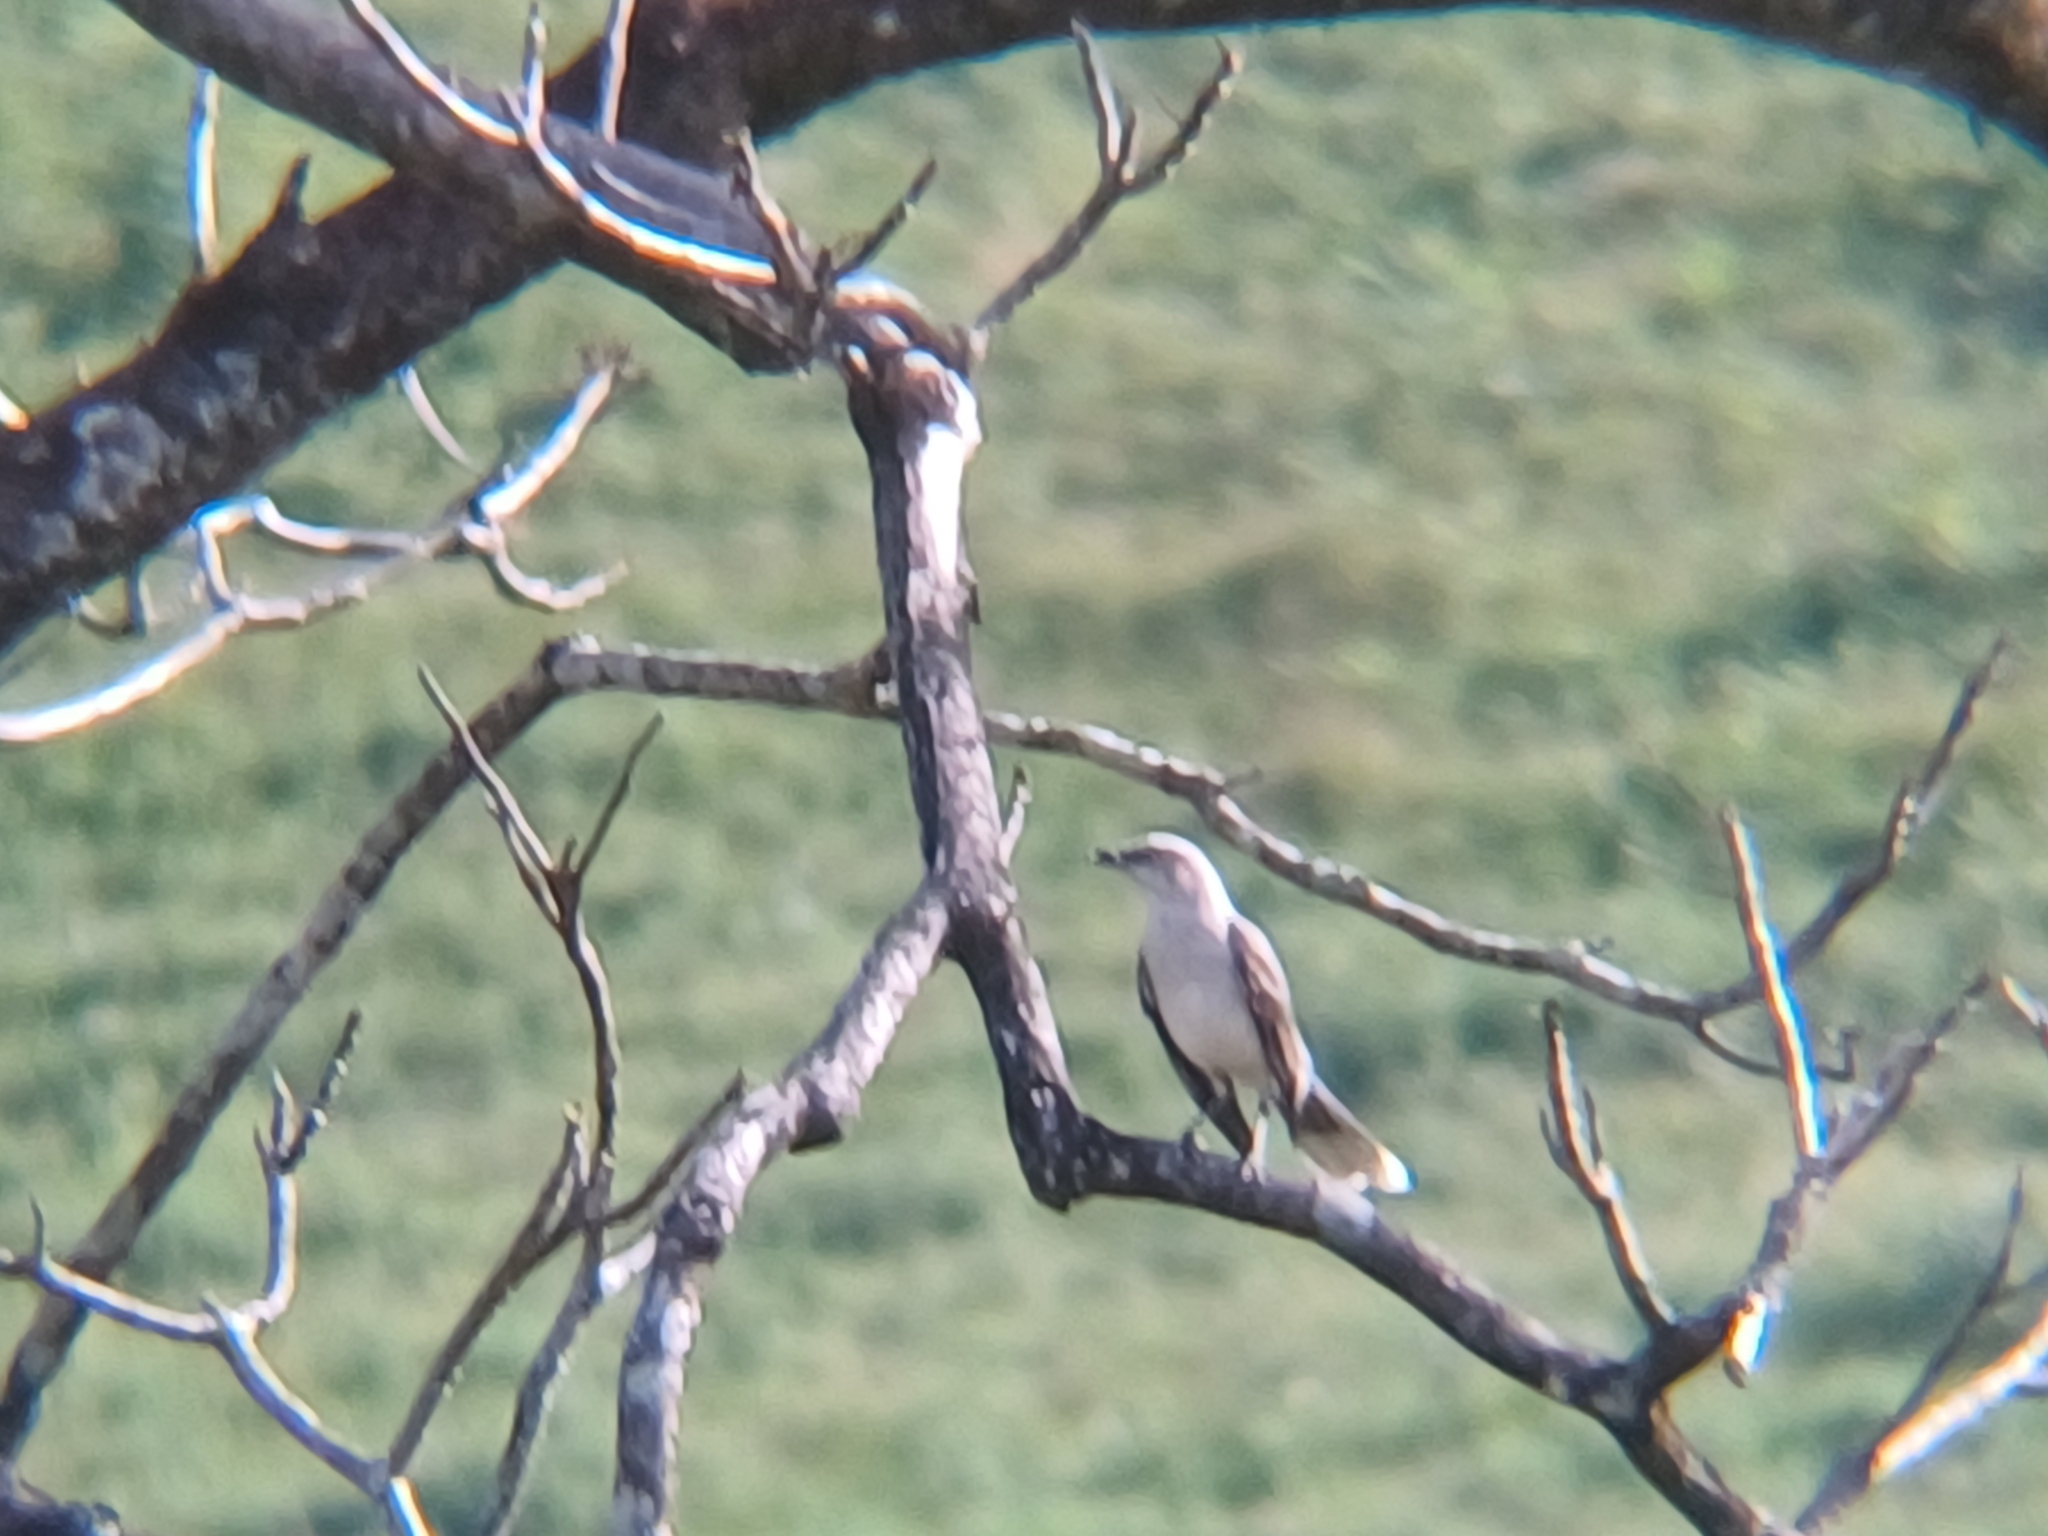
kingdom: Animalia
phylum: Chordata
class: Aves
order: Passeriformes
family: Mimidae
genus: Mimus
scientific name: Mimus gilvus
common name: Tropical mockingbird
